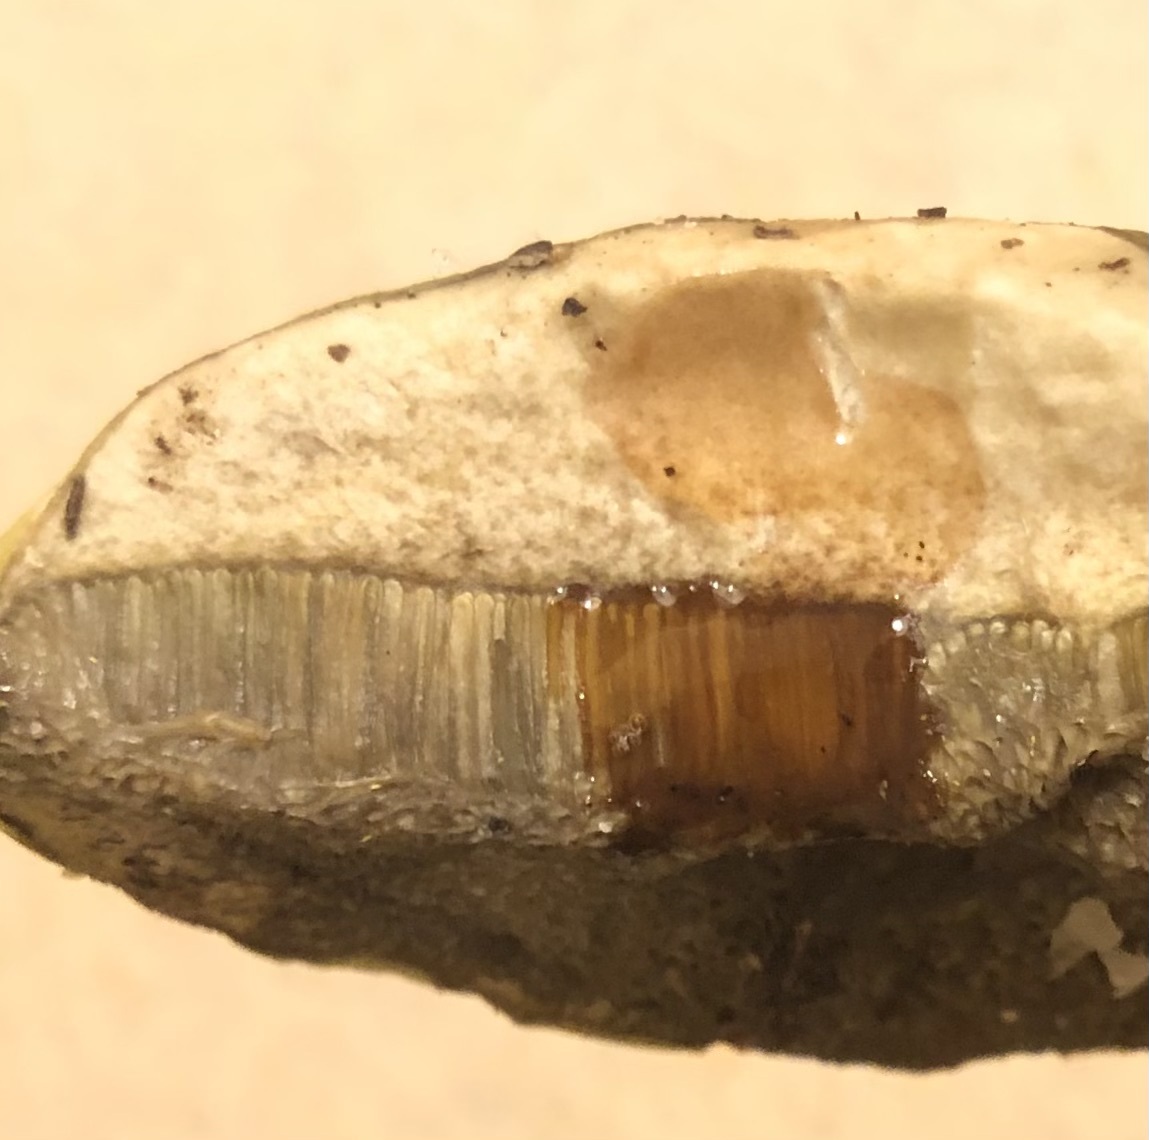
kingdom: Fungi
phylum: Basidiomycota
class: Agaricomycetes
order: Boletales
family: Boletaceae
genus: Pulveroboletus
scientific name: Pulveroboletus ravenelii
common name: Powdery sulfur bolete
